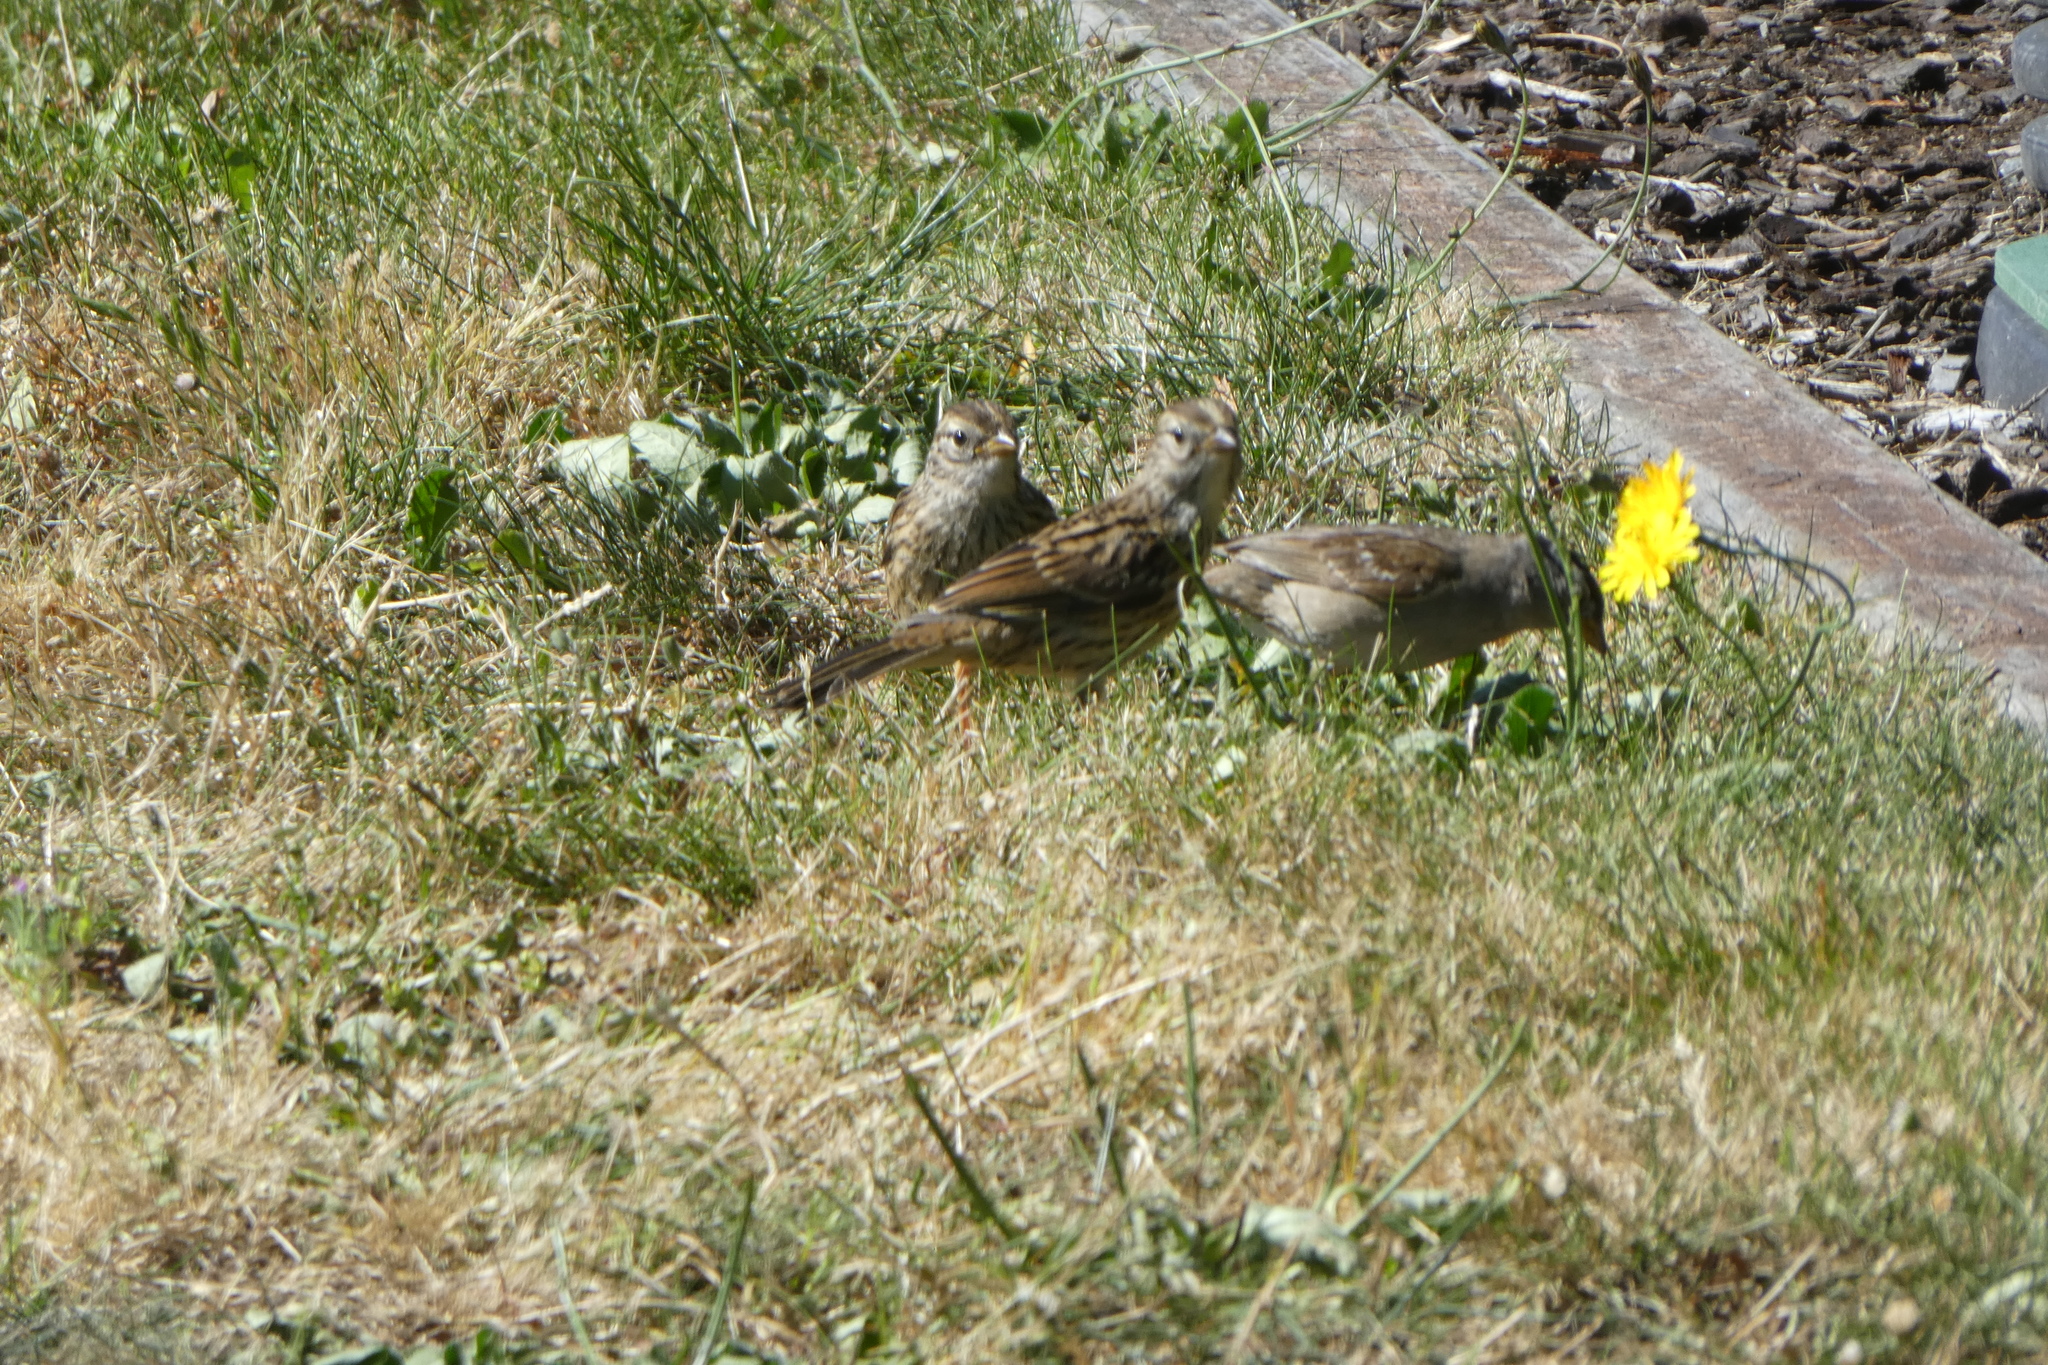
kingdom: Animalia
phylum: Chordata
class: Aves
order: Passeriformes
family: Passerellidae
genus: Zonotrichia
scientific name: Zonotrichia leucophrys
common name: White-crowned sparrow
